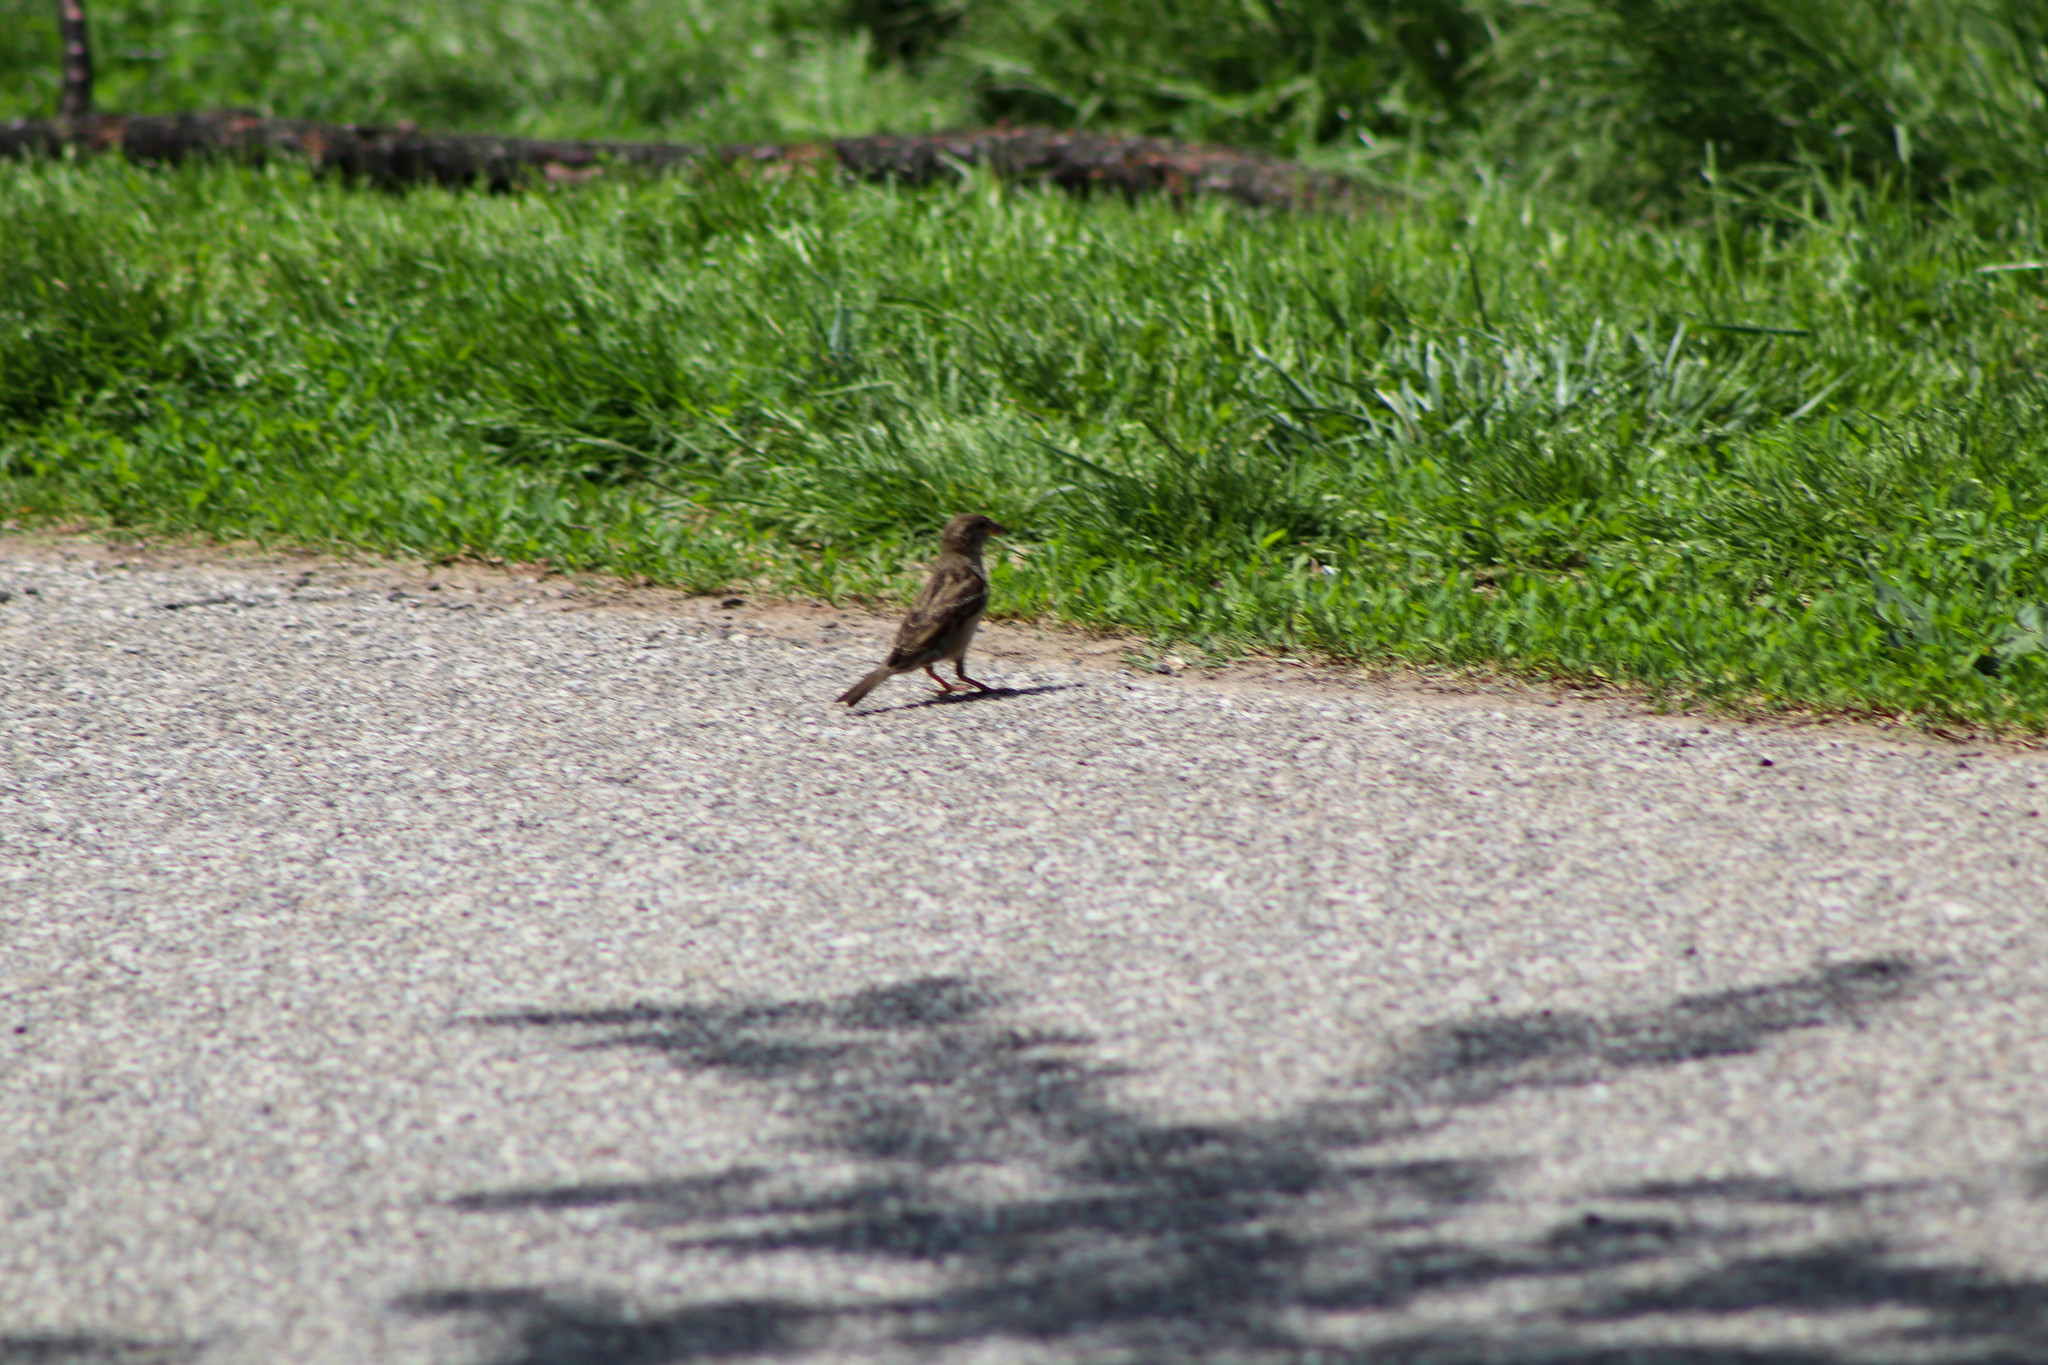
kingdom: Animalia
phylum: Chordata
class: Aves
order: Passeriformes
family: Passeridae
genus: Passer
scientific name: Passer domesticus
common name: House sparrow
